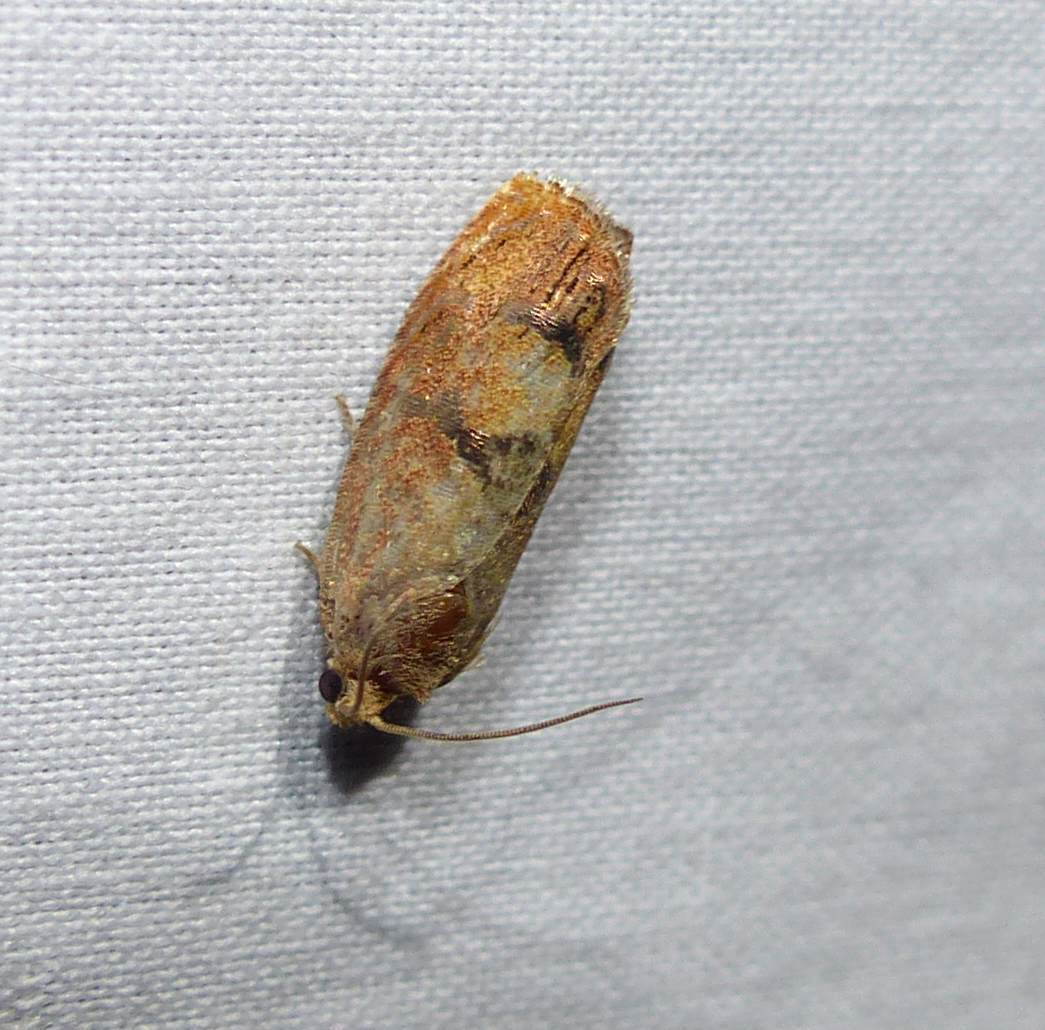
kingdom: Animalia
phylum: Arthropoda
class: Insecta
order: Lepidoptera
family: Tortricidae
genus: Cydia
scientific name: Cydia latiferreana
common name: Filbertworm moth
